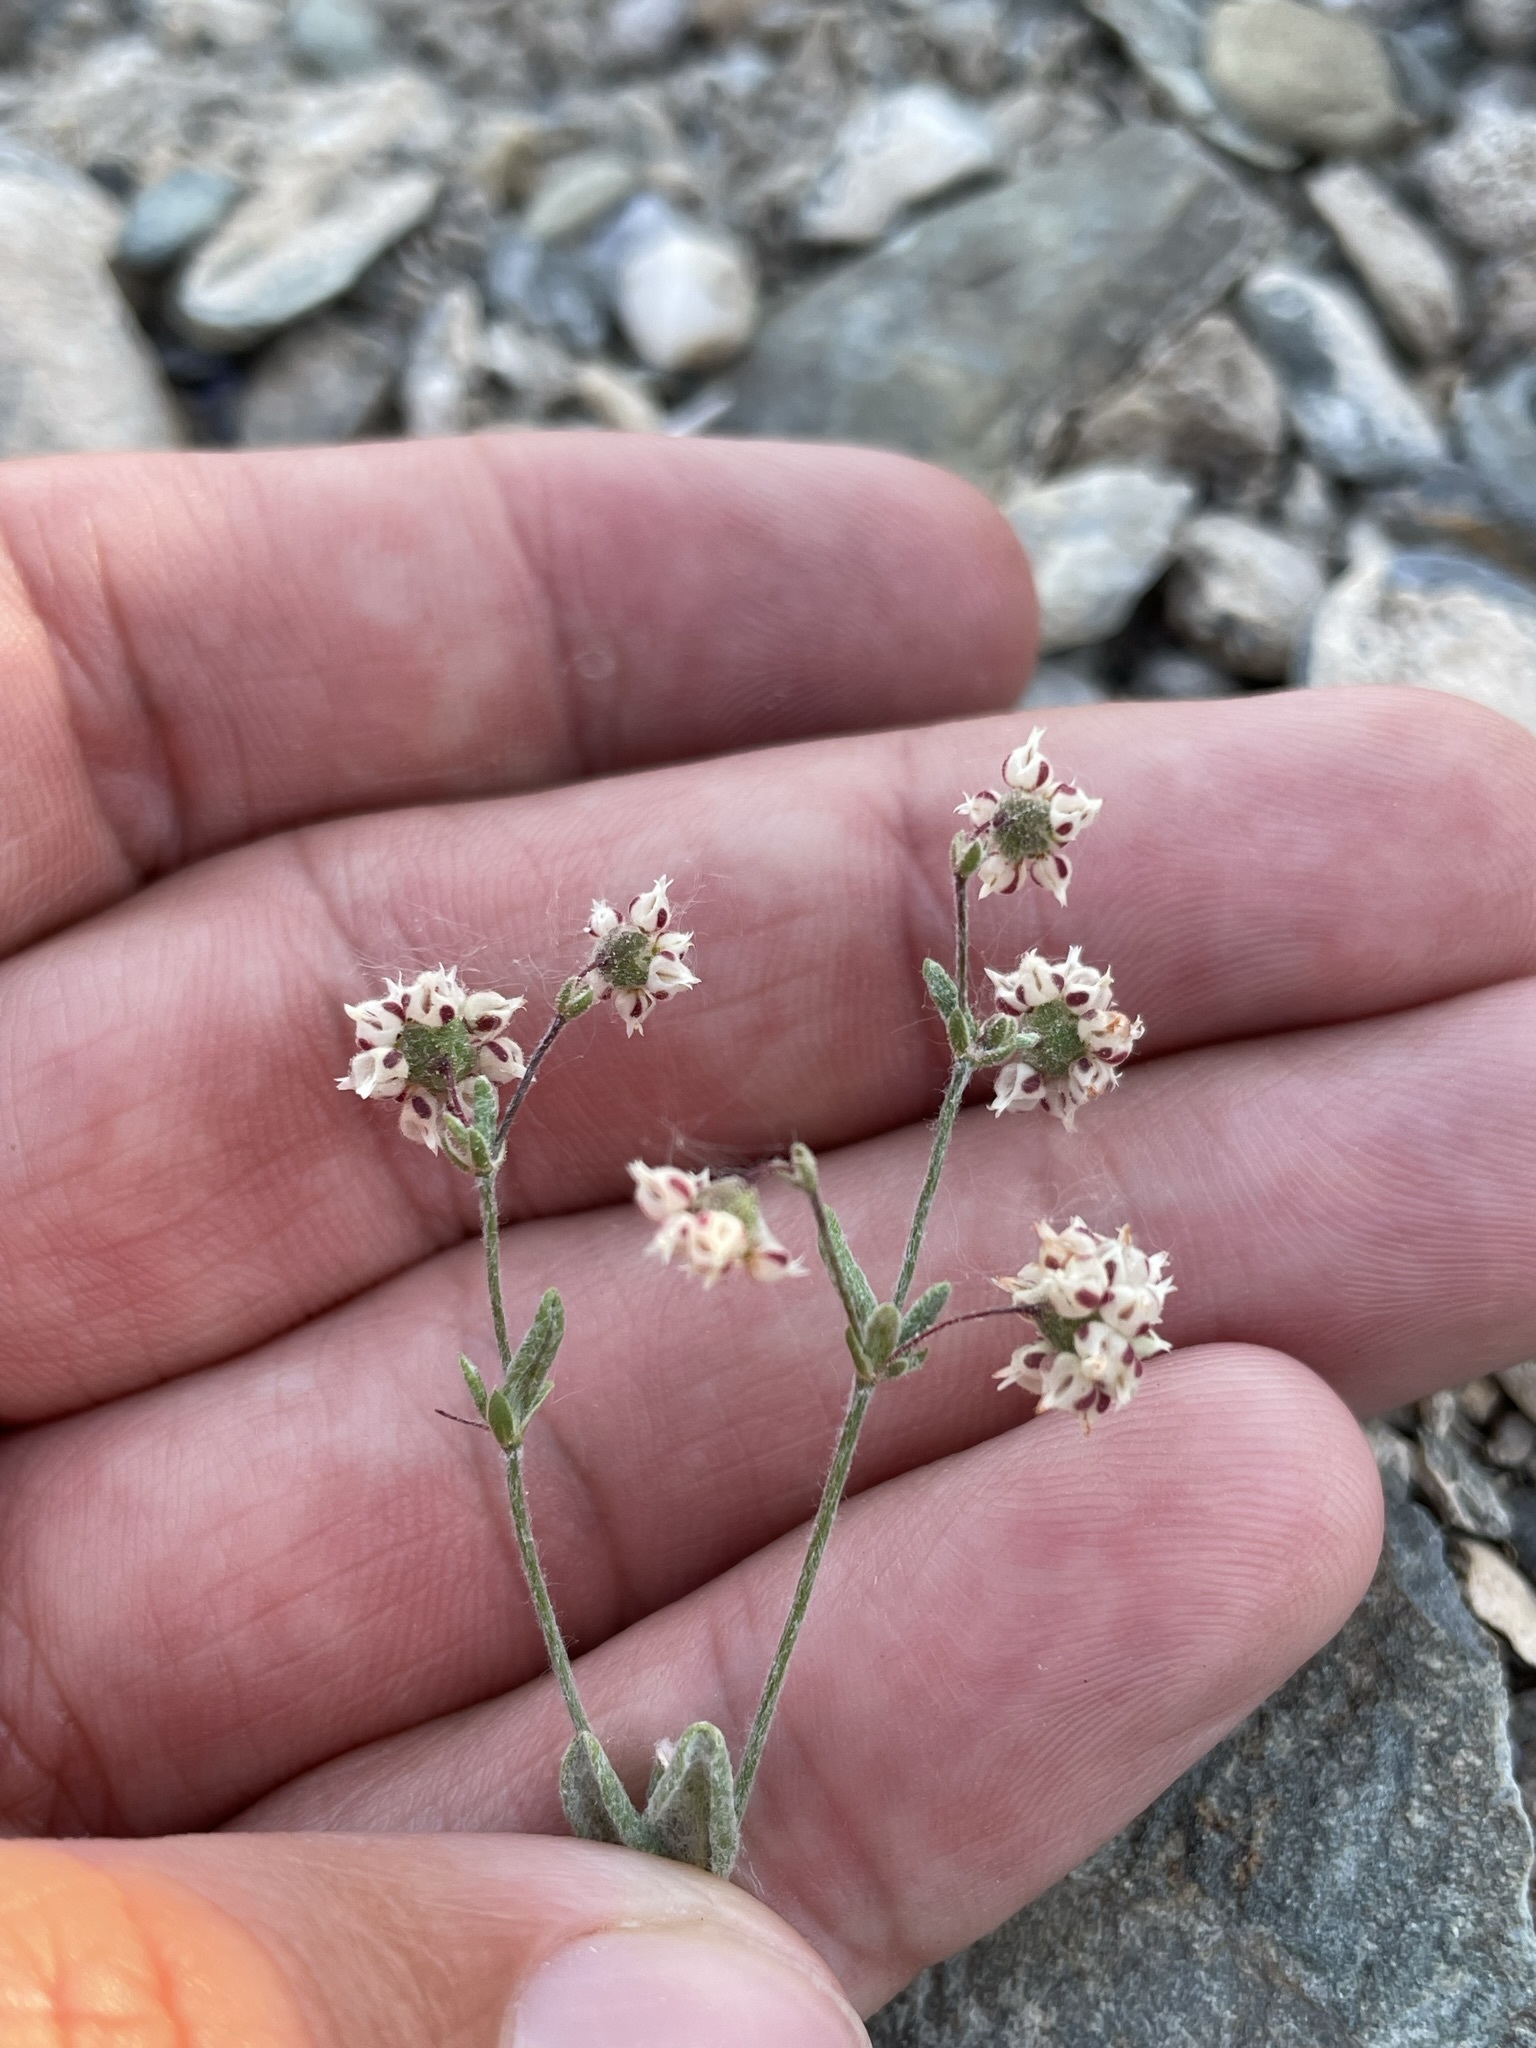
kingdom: Plantae
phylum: Tracheophyta
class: Magnoliopsida
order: Caryophyllales
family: Polygonaceae
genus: Eriogonum
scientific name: Eriogonum maculatum
